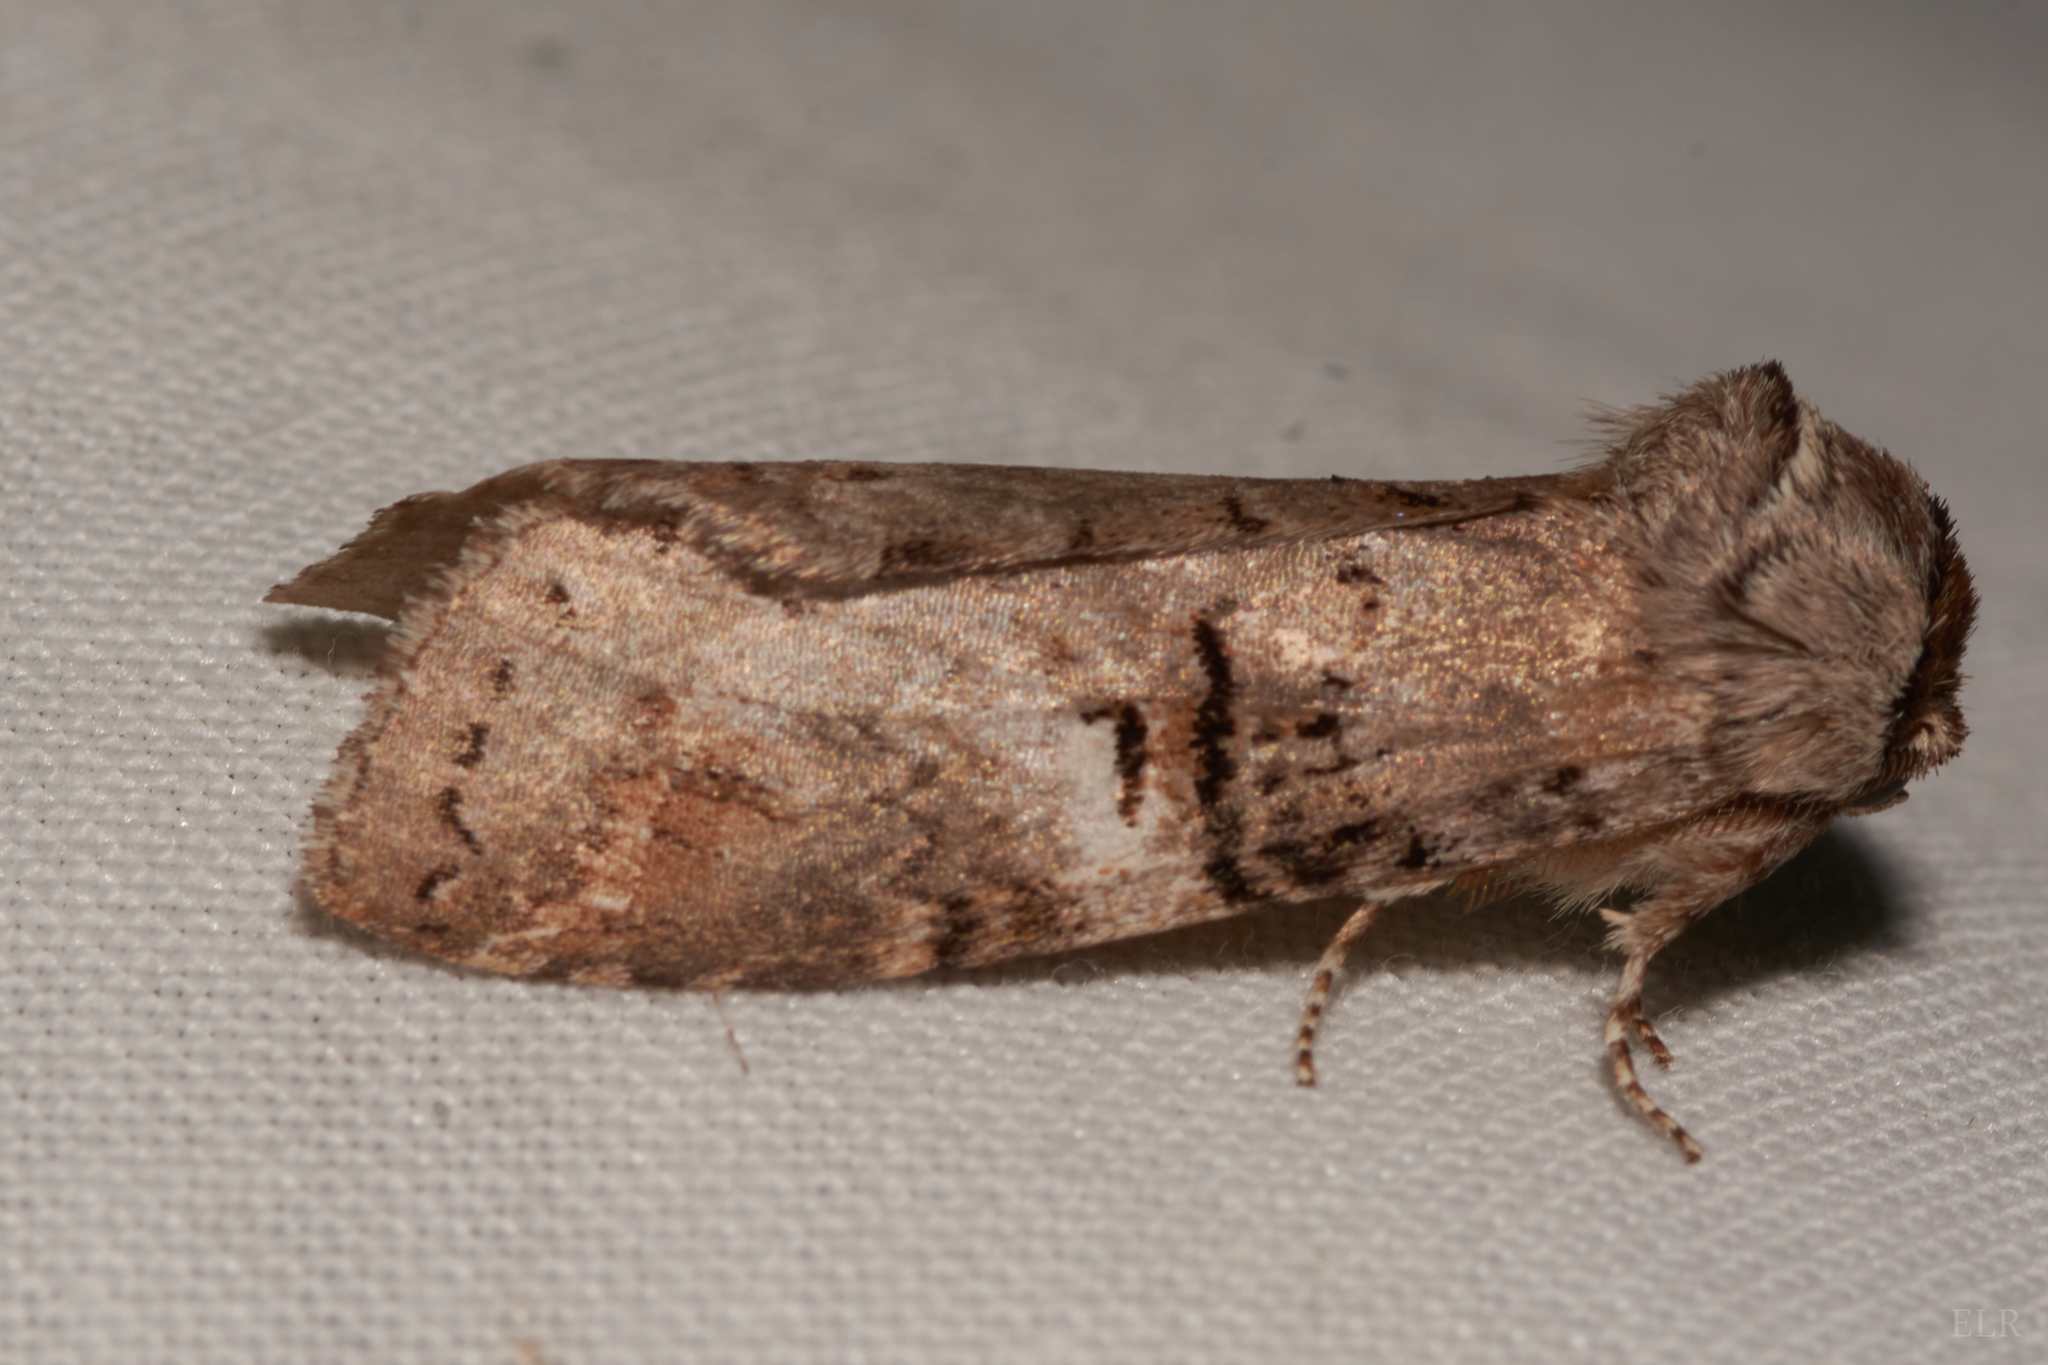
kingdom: Animalia
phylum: Arthropoda
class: Insecta
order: Lepidoptera
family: Notodontidae
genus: Ellida
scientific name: Ellida caniplaga
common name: Linden prominent
